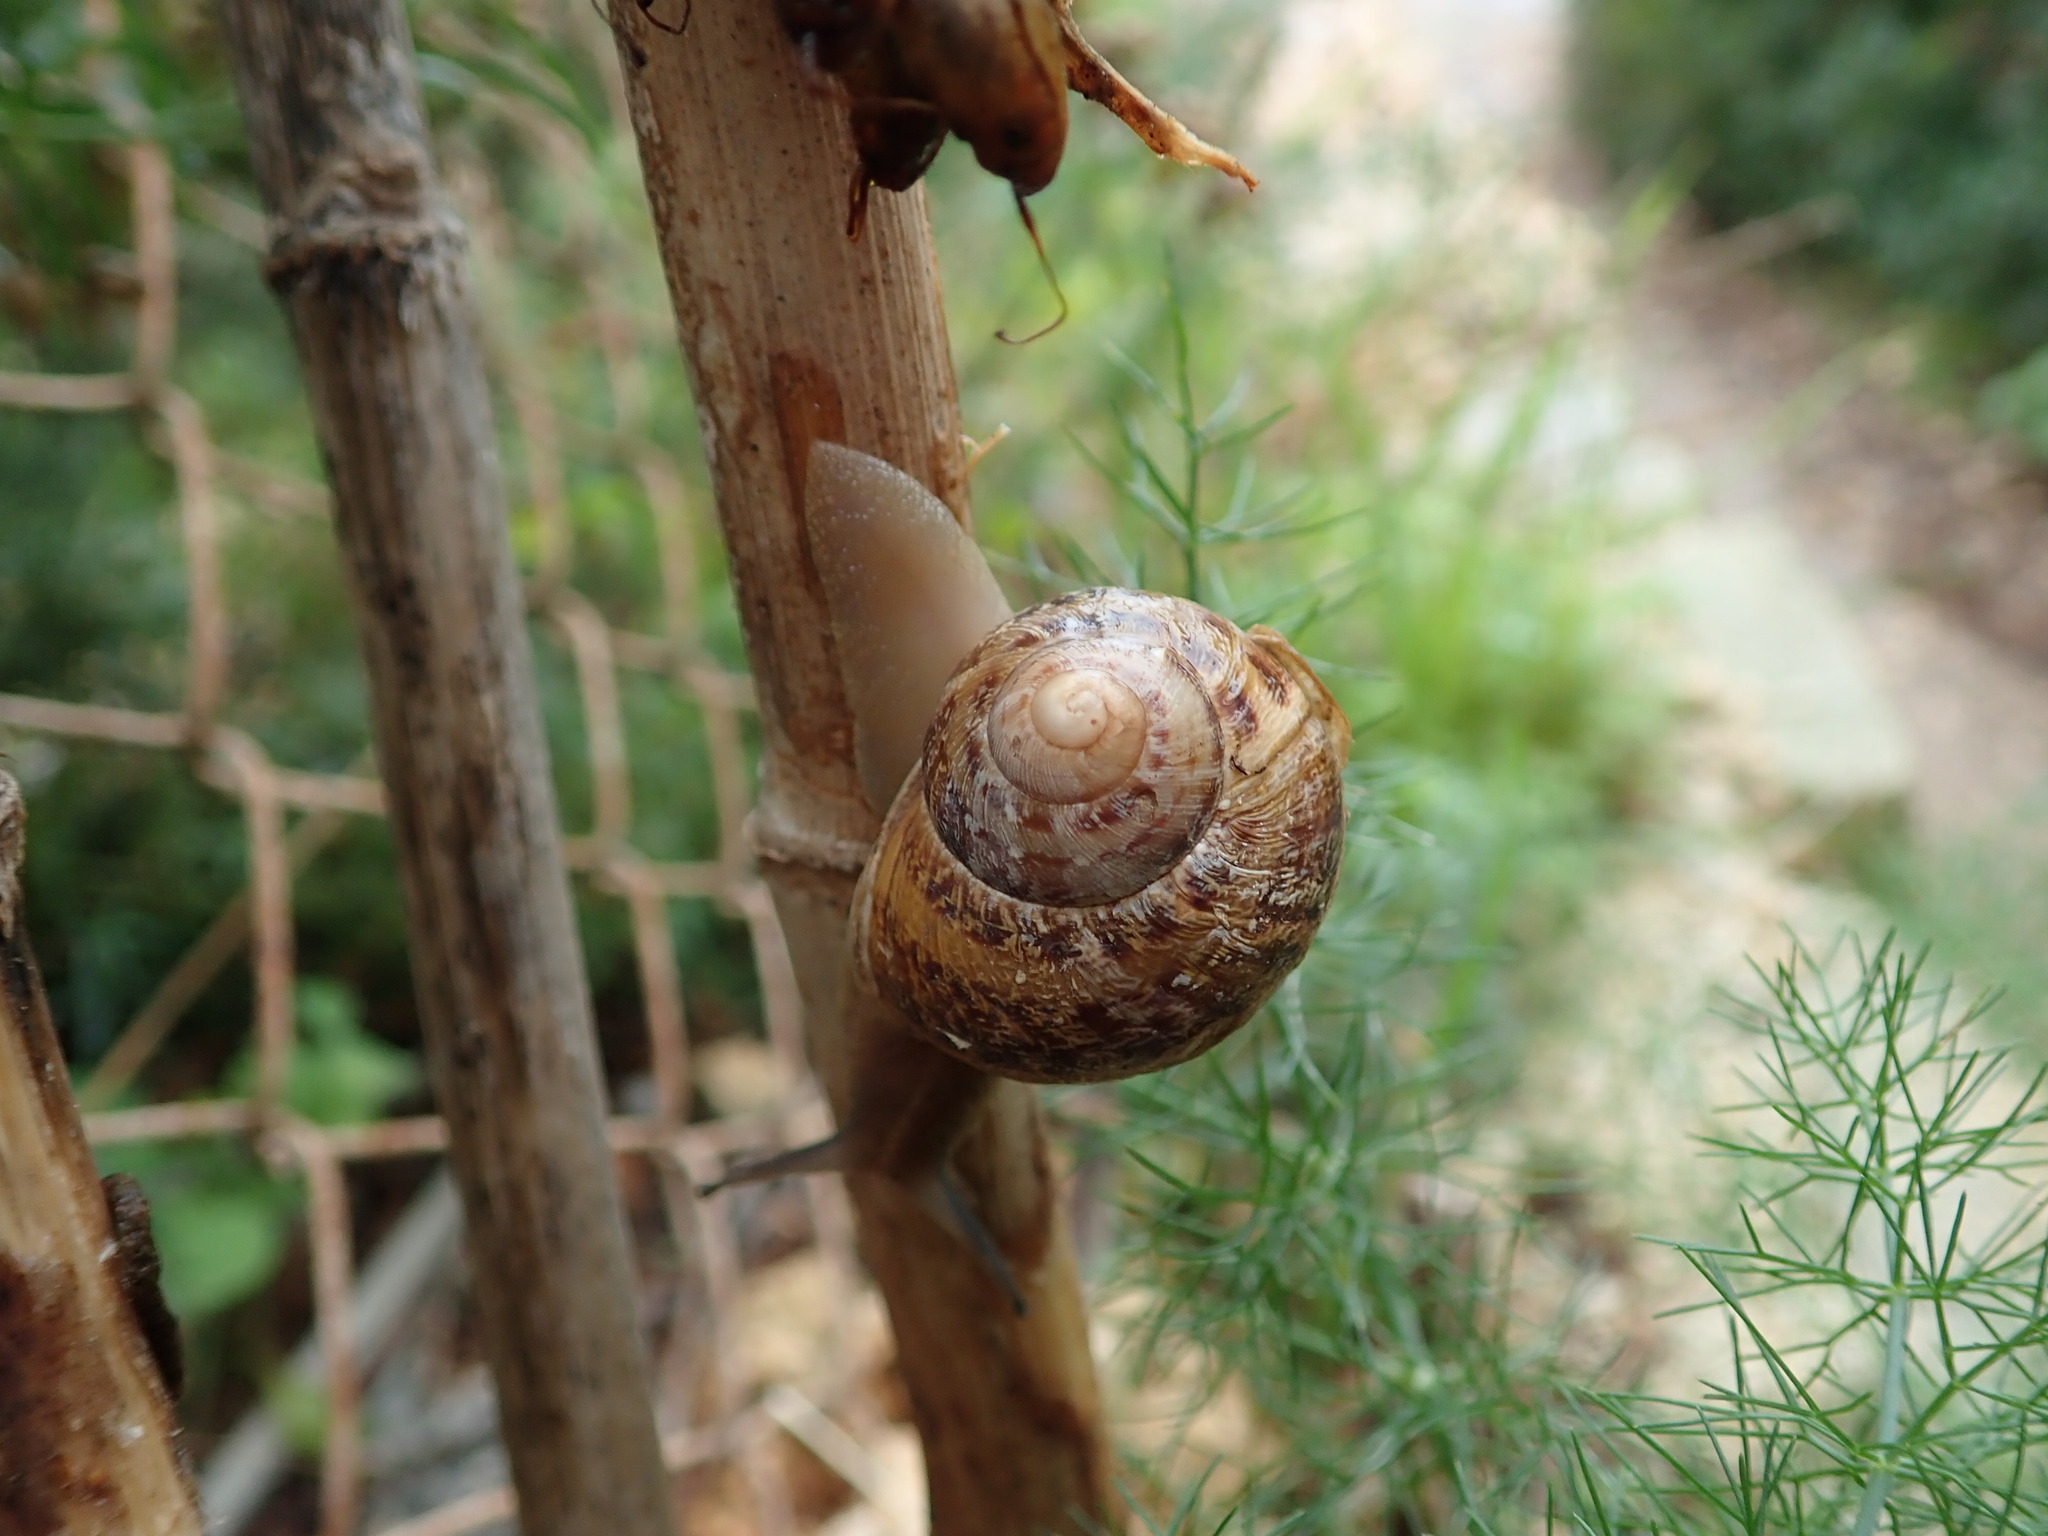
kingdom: Animalia
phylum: Mollusca
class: Gastropoda
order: Stylommatophora
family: Helicidae
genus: Cornu
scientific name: Cornu aspersum
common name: Brown garden snail
